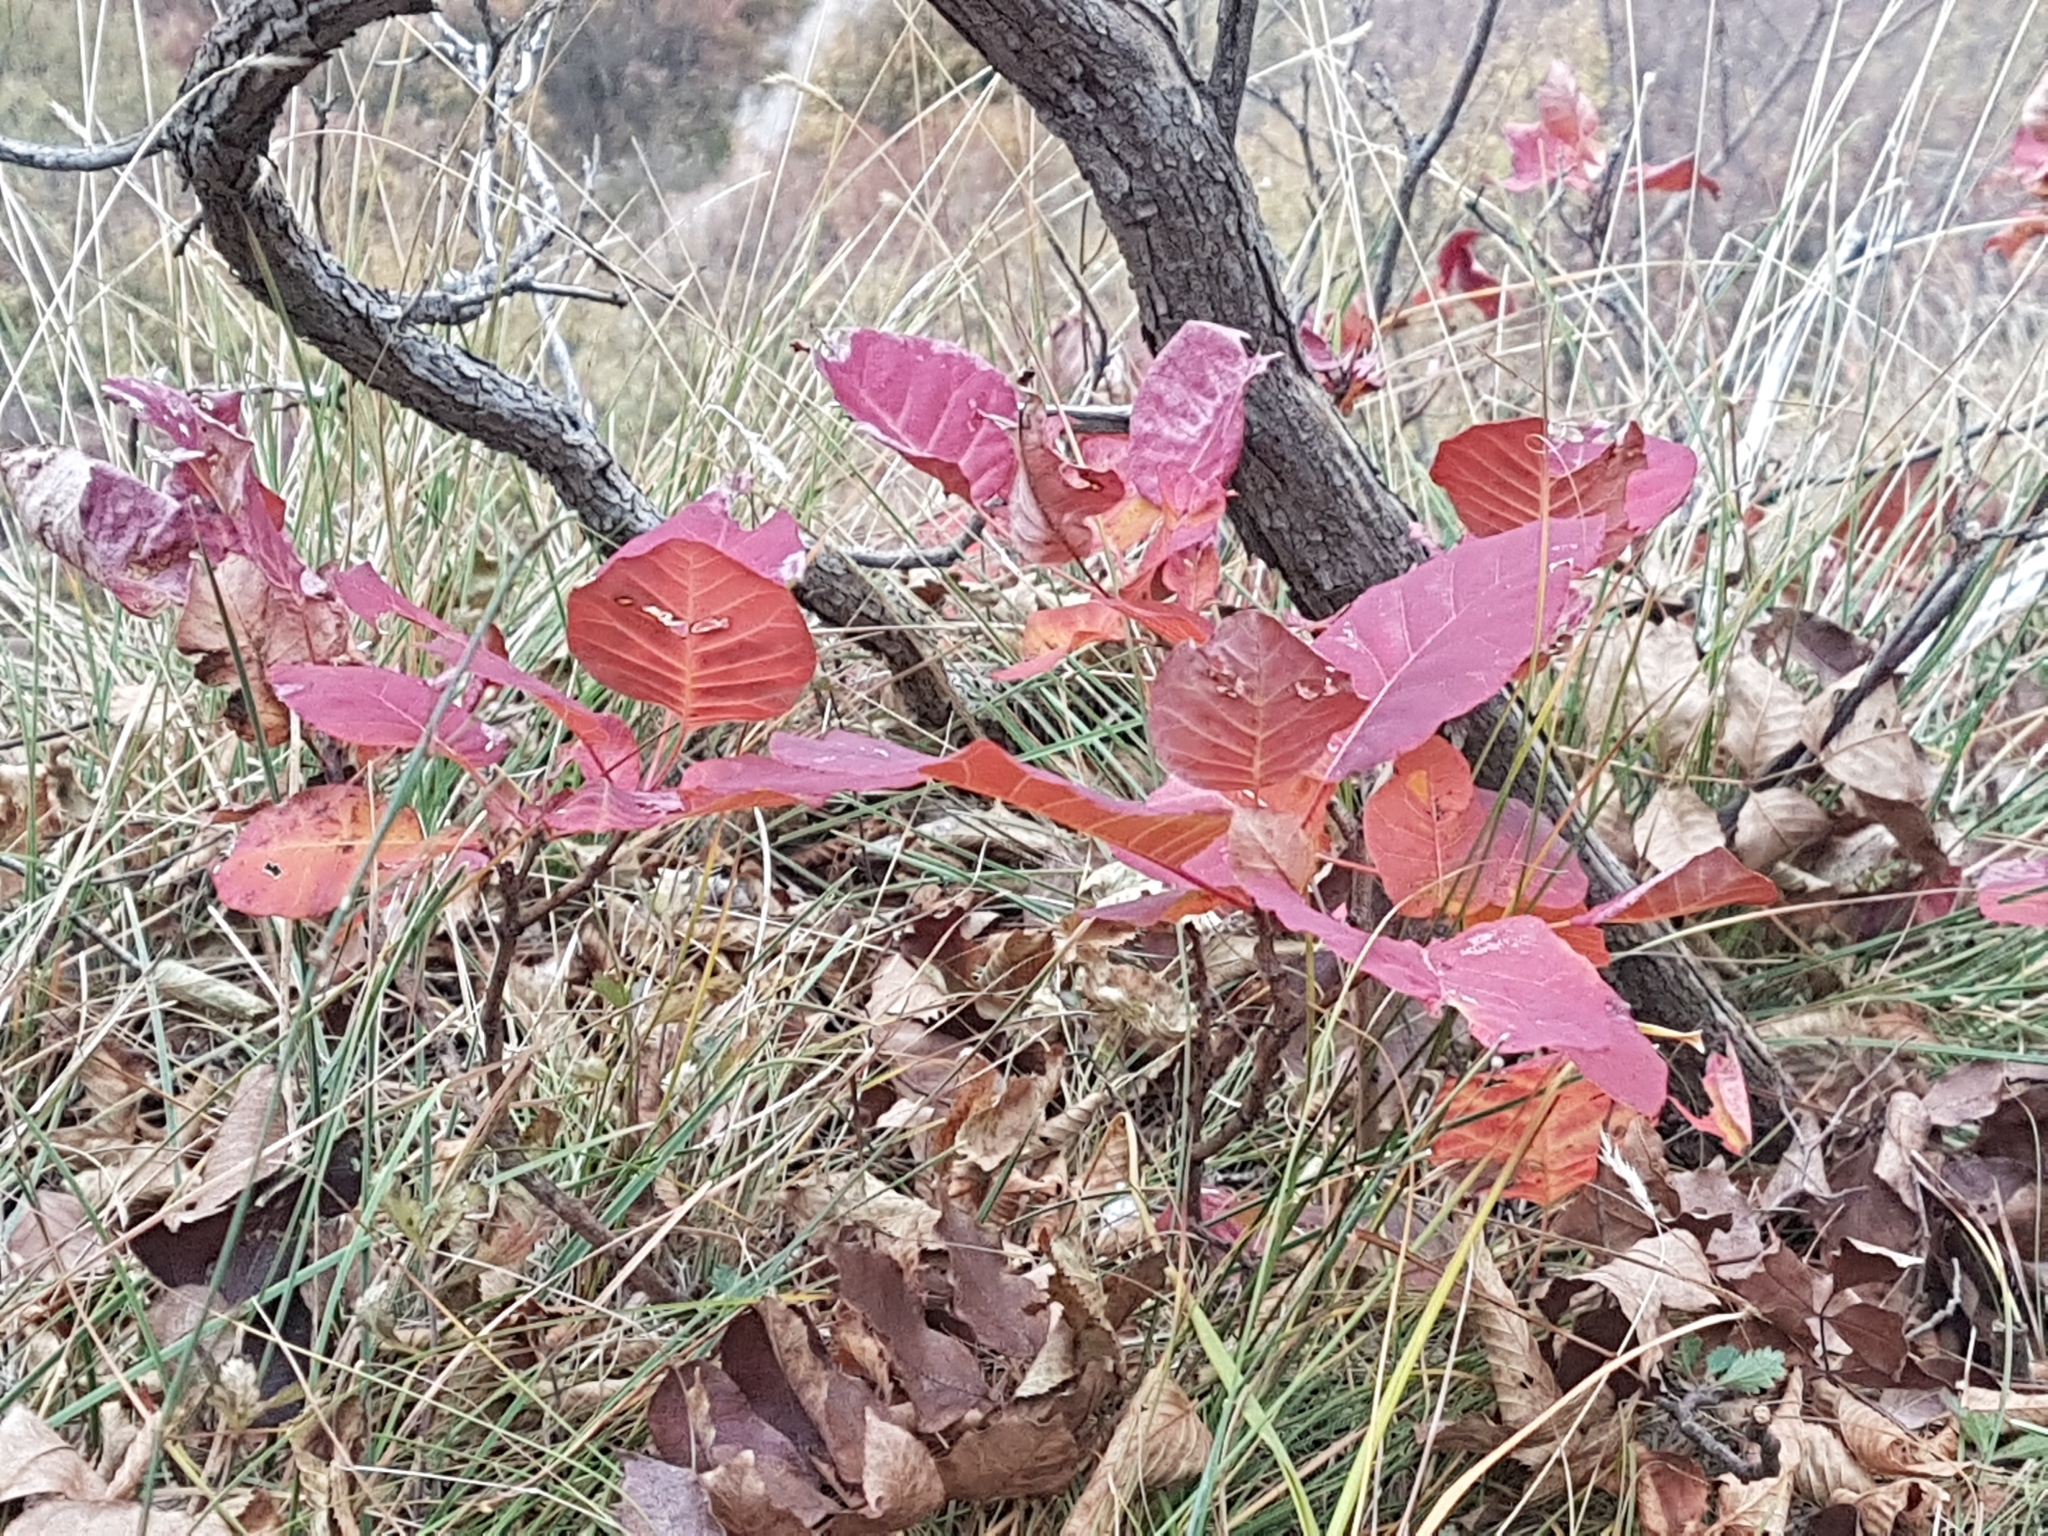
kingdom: Plantae
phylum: Tracheophyta
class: Magnoliopsida
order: Sapindales
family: Anacardiaceae
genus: Cotinus
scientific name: Cotinus coggygria
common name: Smoke-tree
